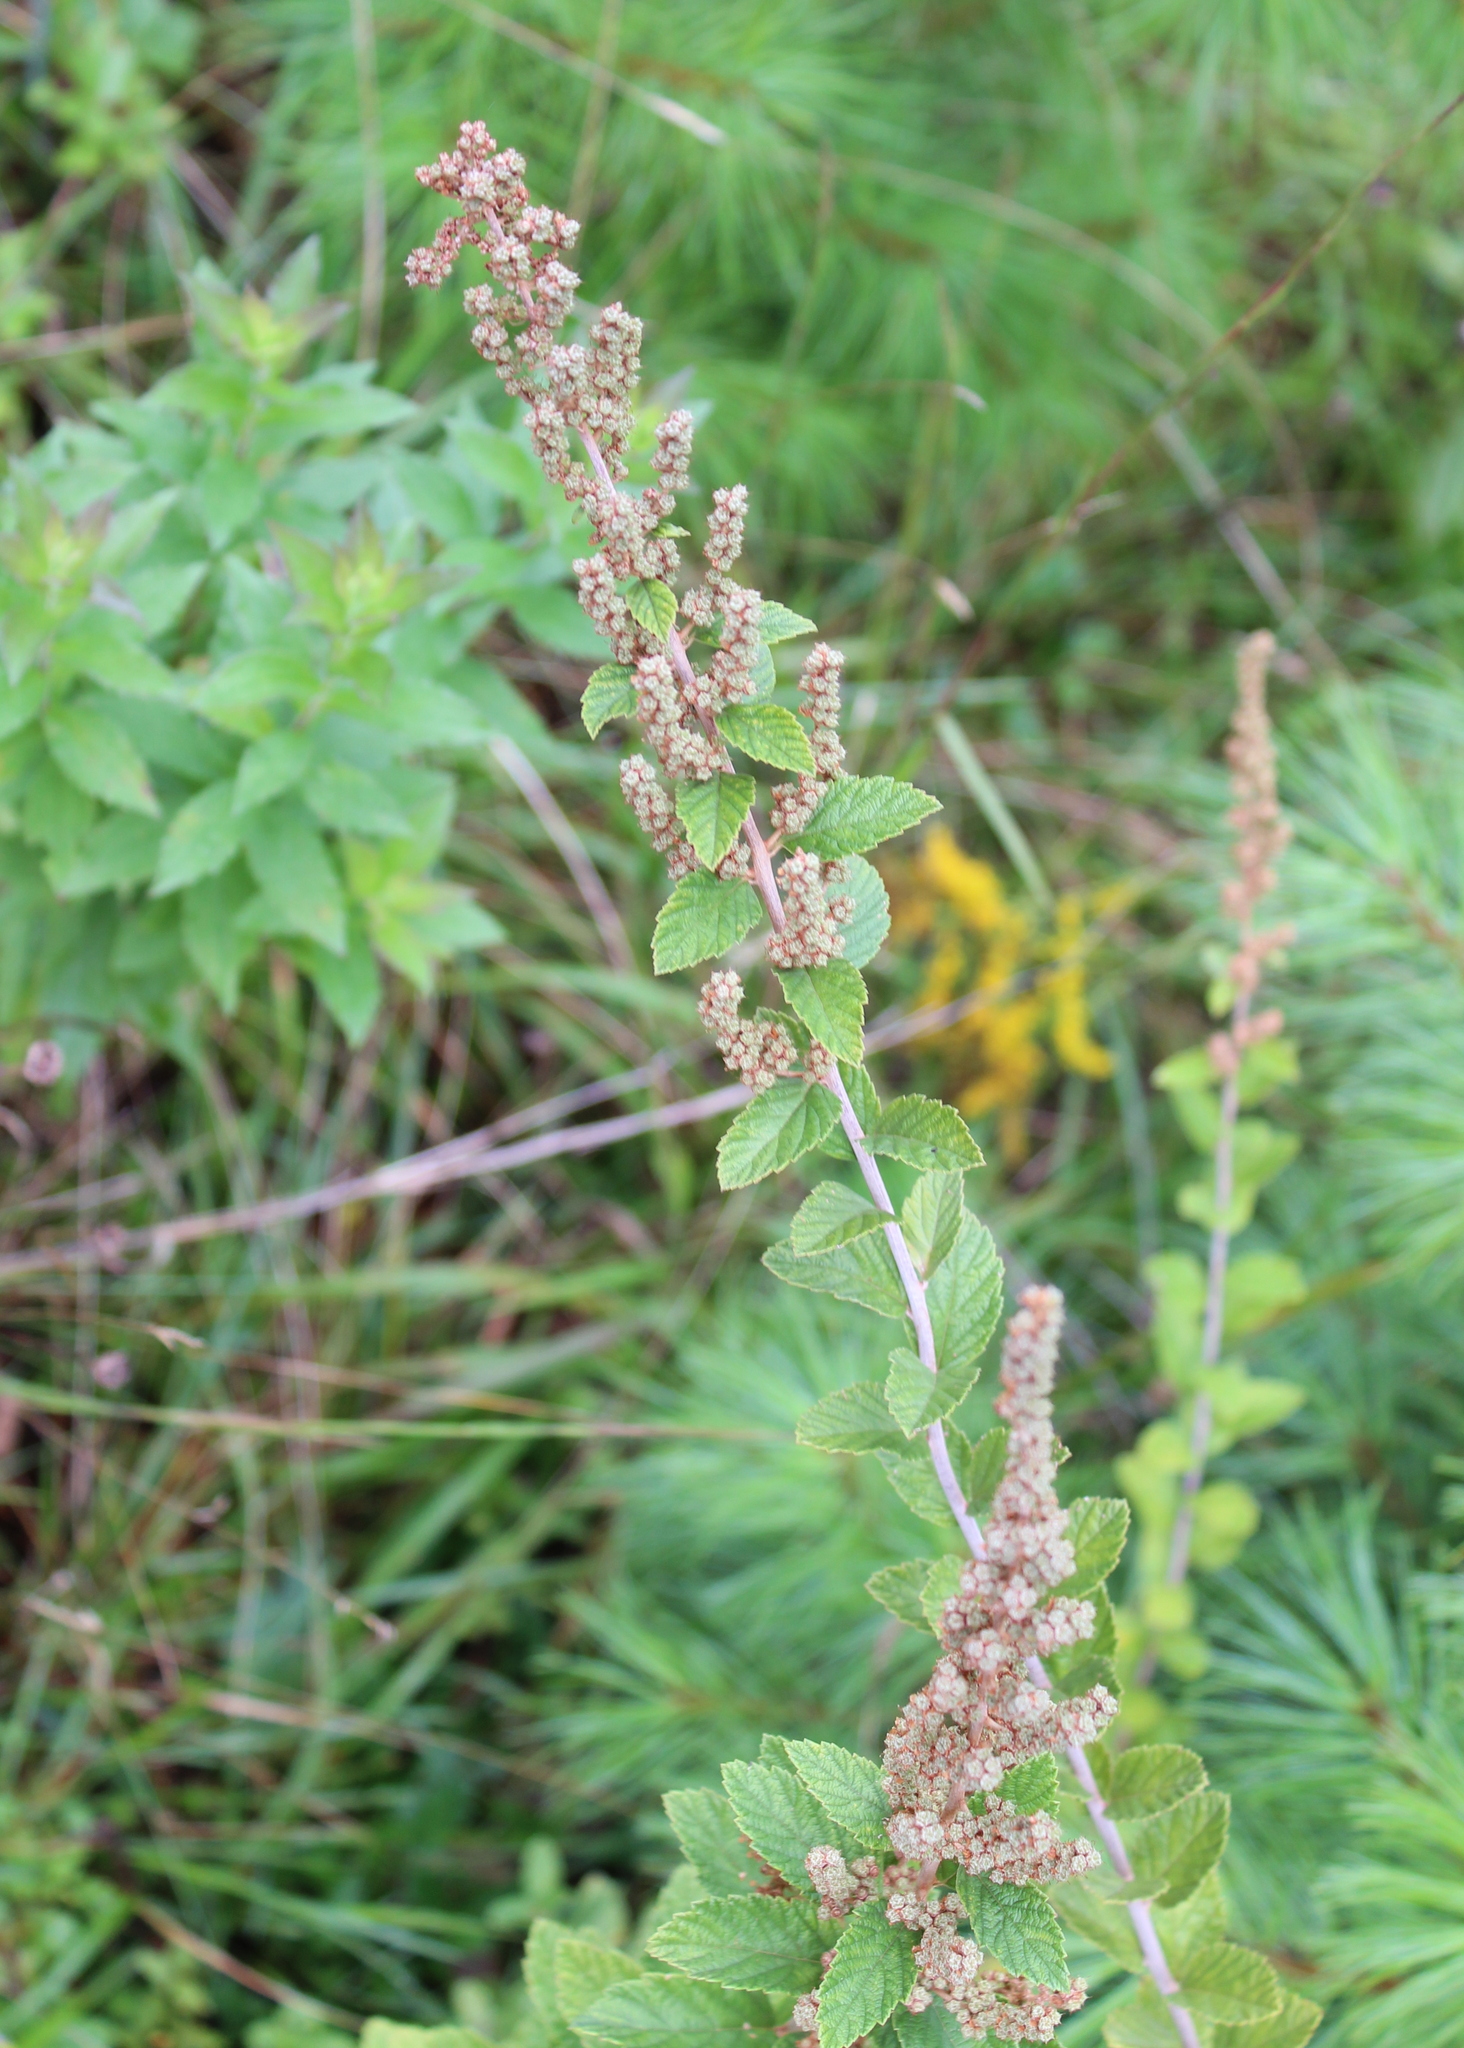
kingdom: Plantae
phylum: Tracheophyta
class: Magnoliopsida
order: Rosales
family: Rosaceae
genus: Spiraea
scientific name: Spiraea tomentosa
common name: Hardhack
